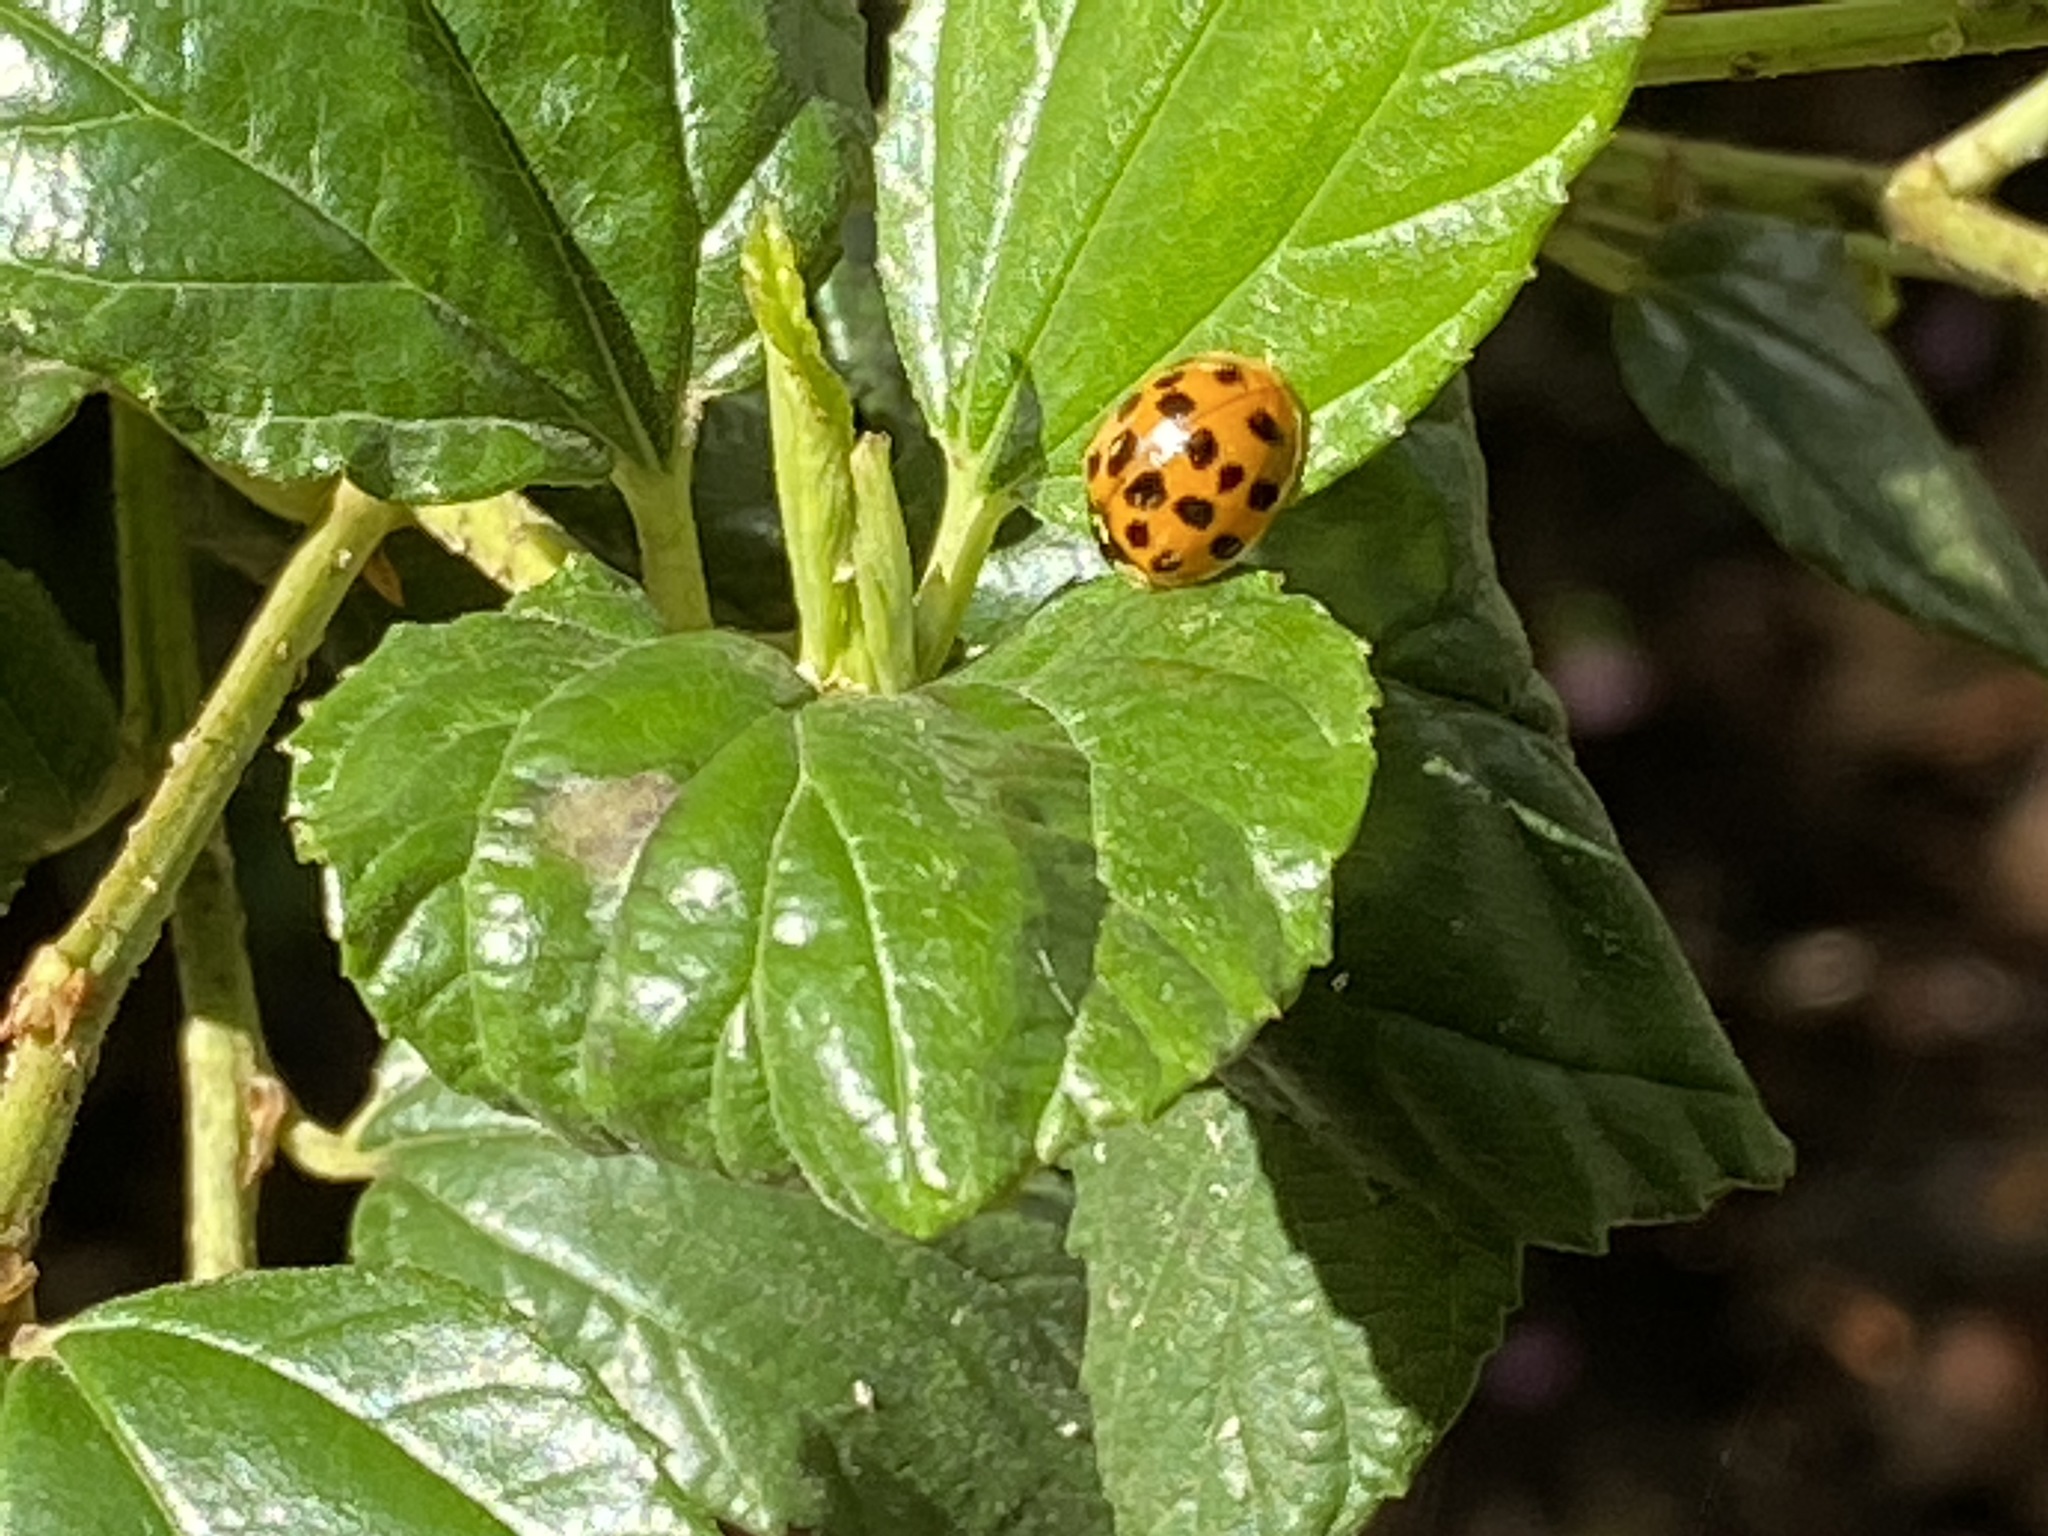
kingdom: Animalia
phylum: Arthropoda
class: Insecta
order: Coleoptera
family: Coccinellidae
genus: Harmonia
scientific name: Harmonia axyridis
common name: Harlequin ladybird
